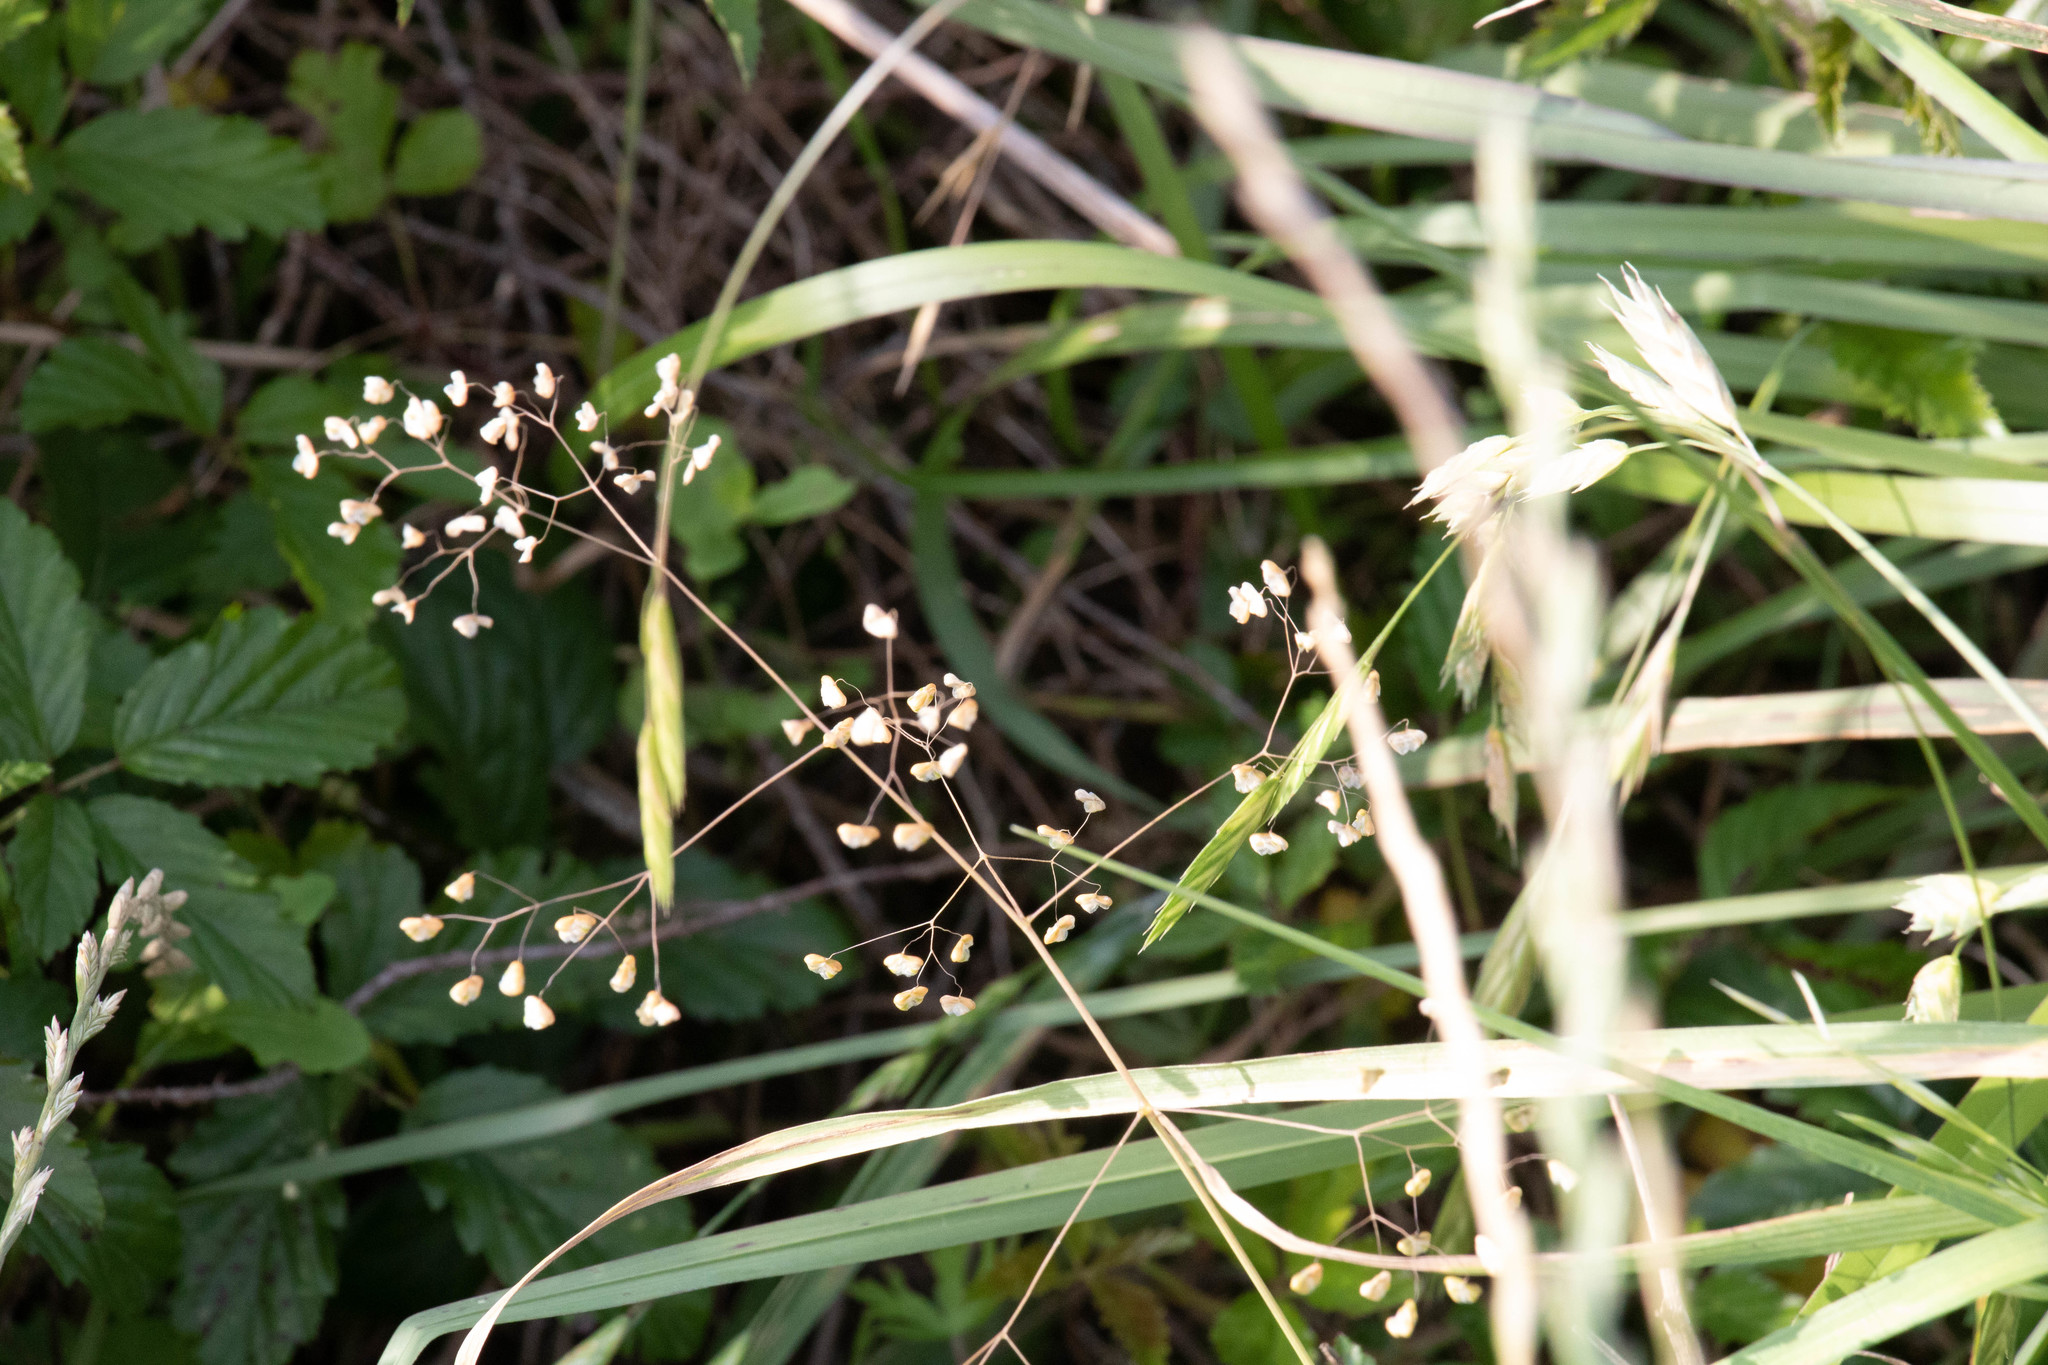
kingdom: Plantae
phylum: Tracheophyta
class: Liliopsida
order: Poales
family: Poaceae
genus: Briza
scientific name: Briza minor
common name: Lesser quaking-grass
